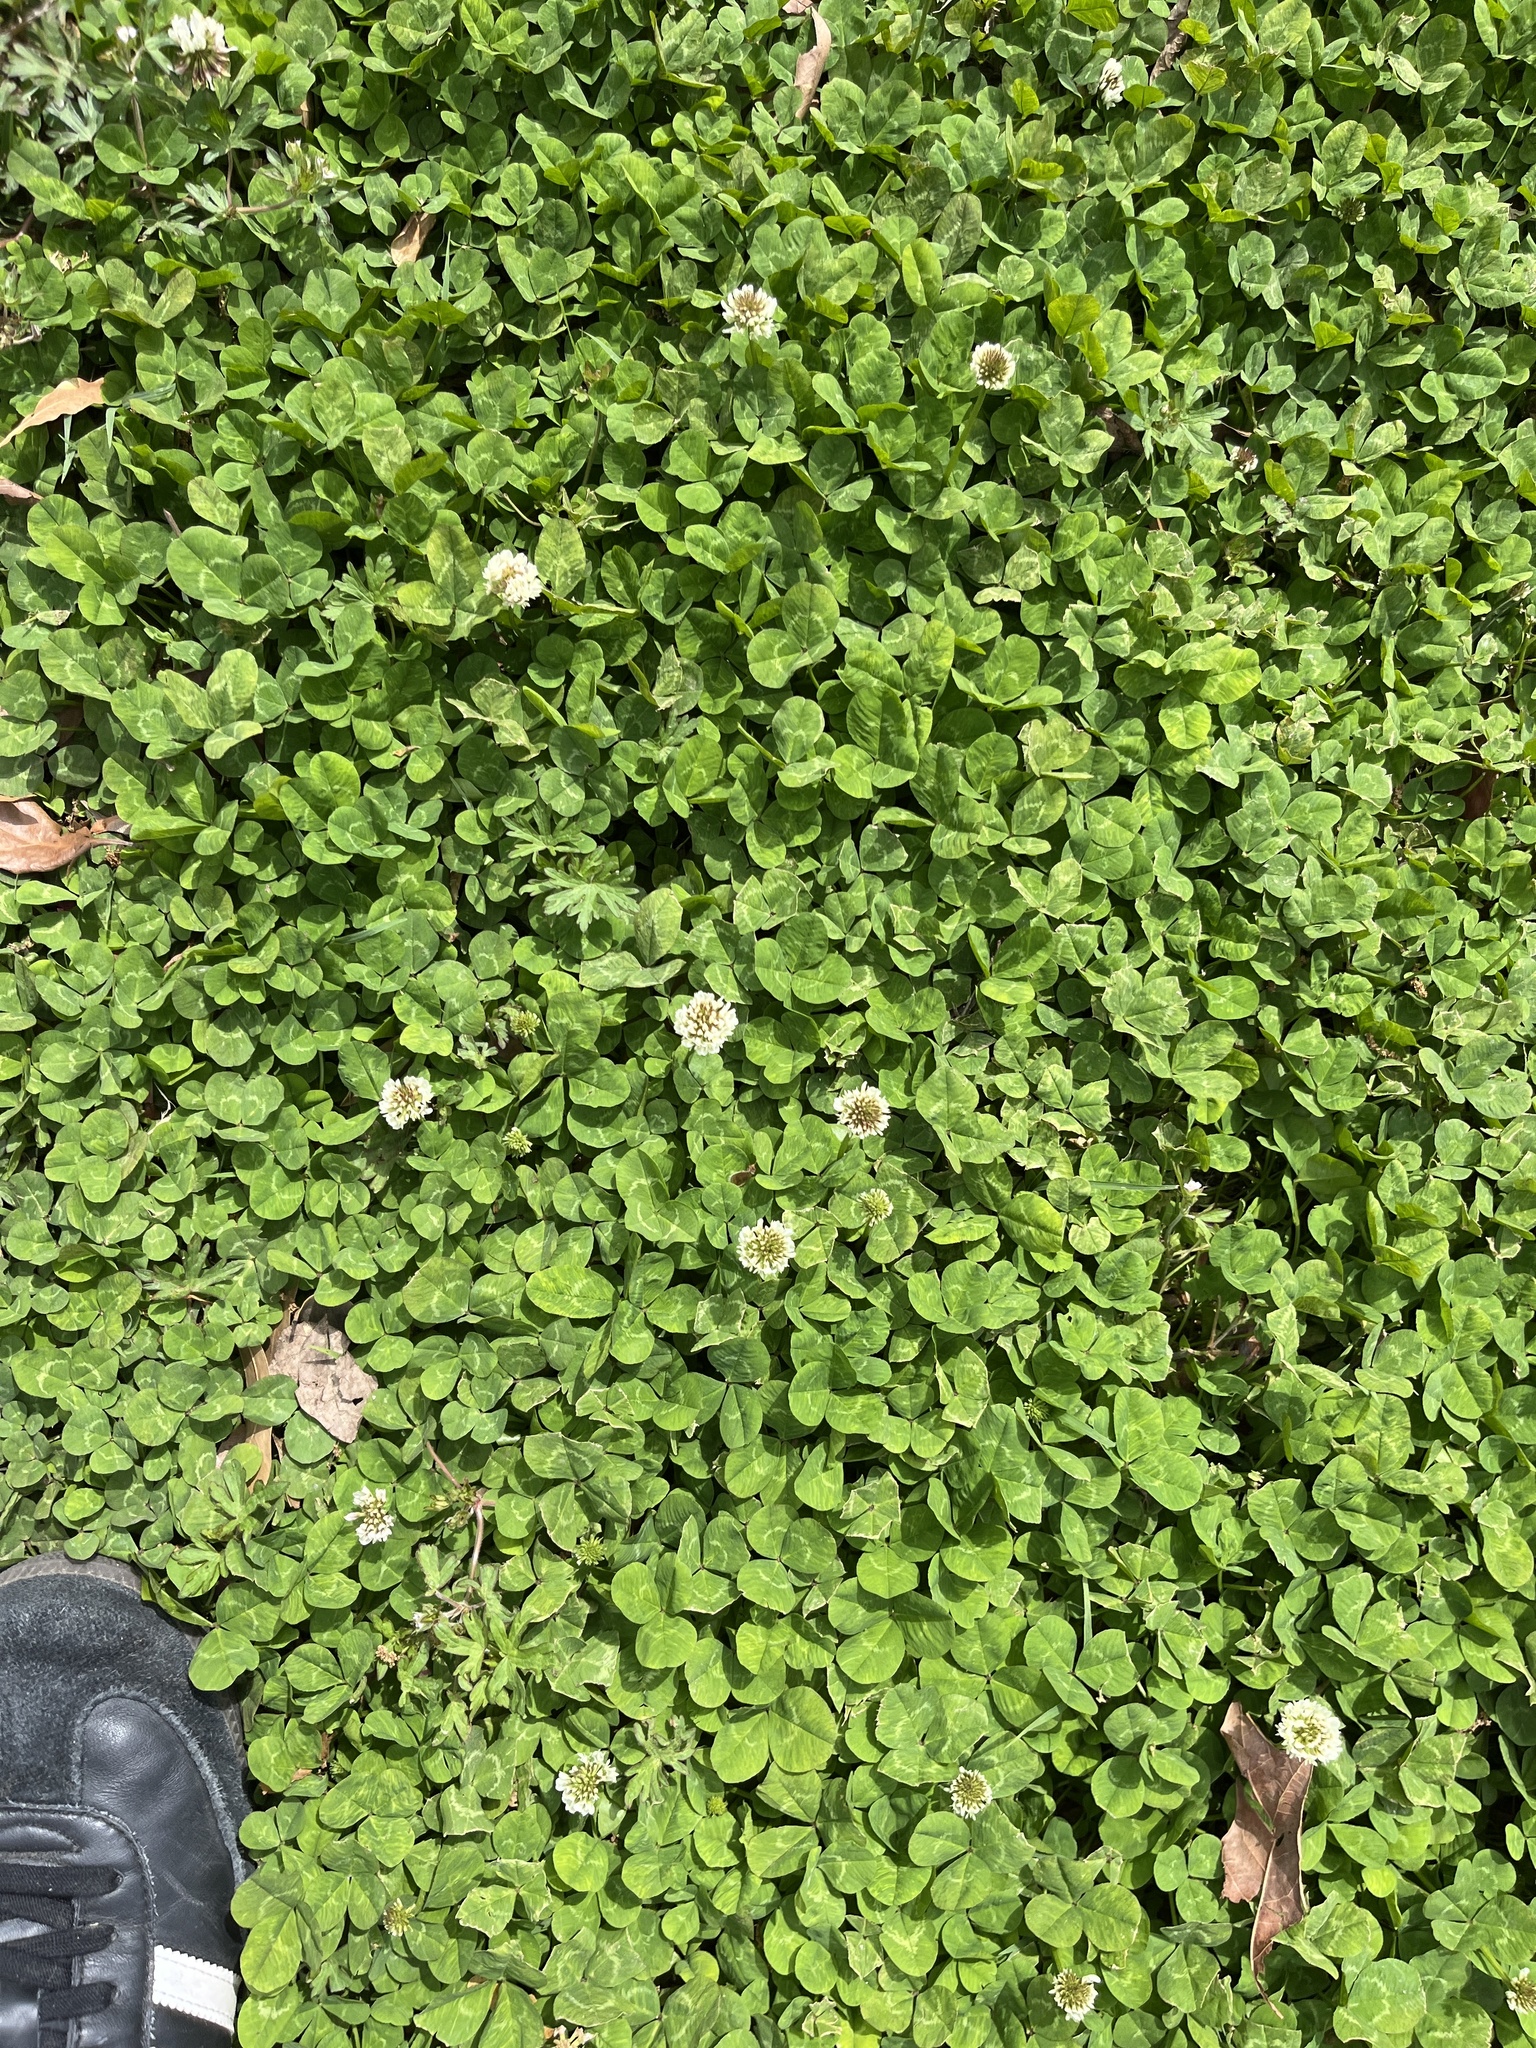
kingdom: Plantae
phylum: Tracheophyta
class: Magnoliopsida
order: Fabales
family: Fabaceae
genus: Trifolium
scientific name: Trifolium repens
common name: White clover
